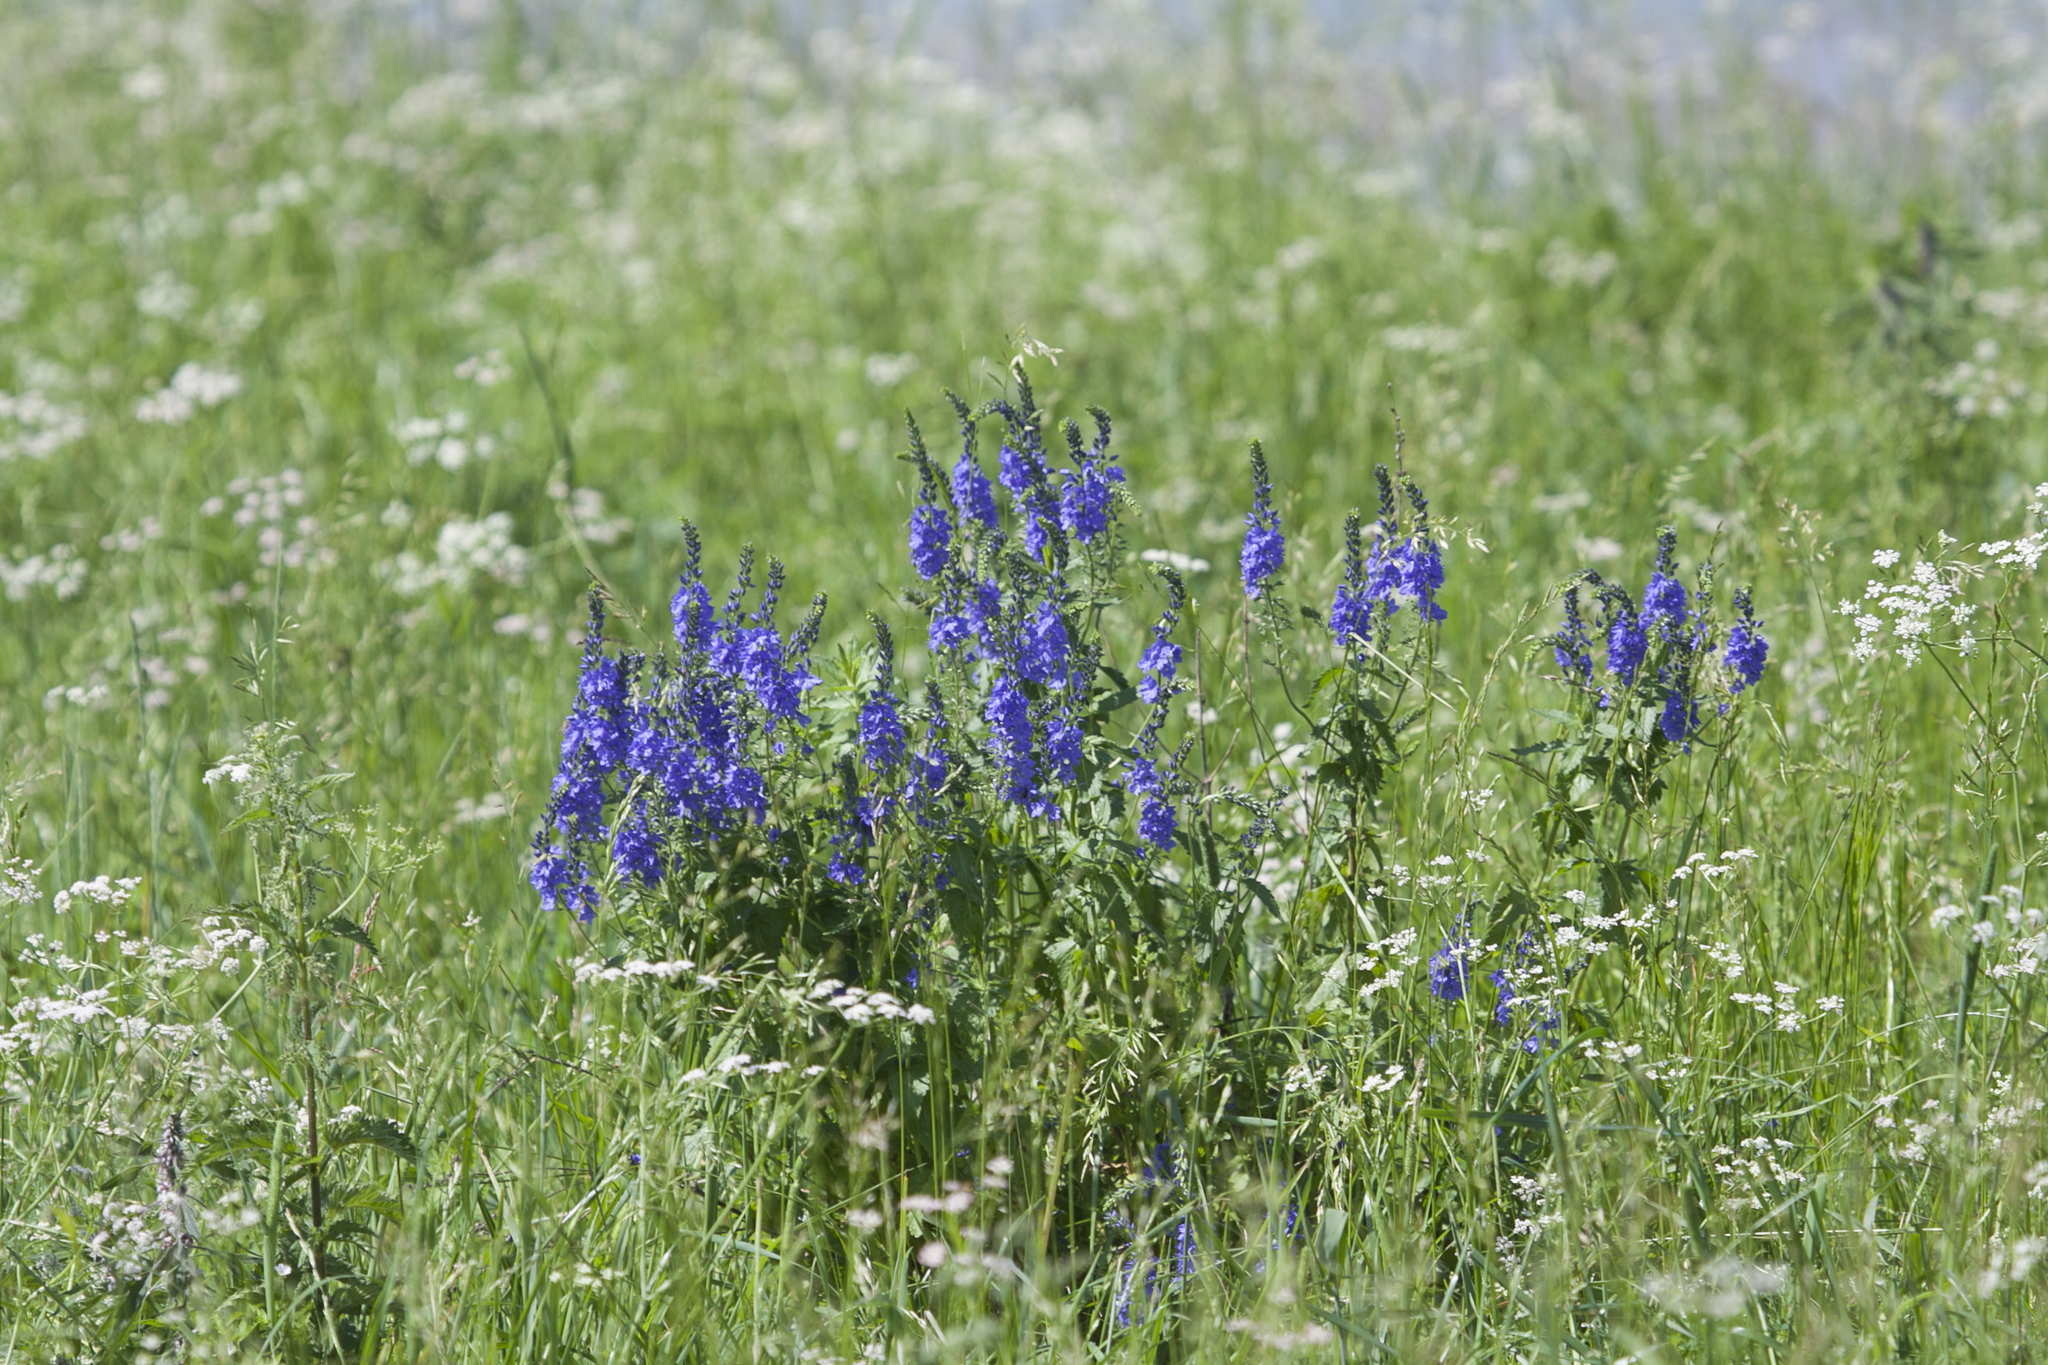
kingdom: Plantae
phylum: Tracheophyta
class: Magnoliopsida
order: Lamiales
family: Plantaginaceae
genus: Veronica
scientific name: Veronica teucrium
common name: Large speedwell
